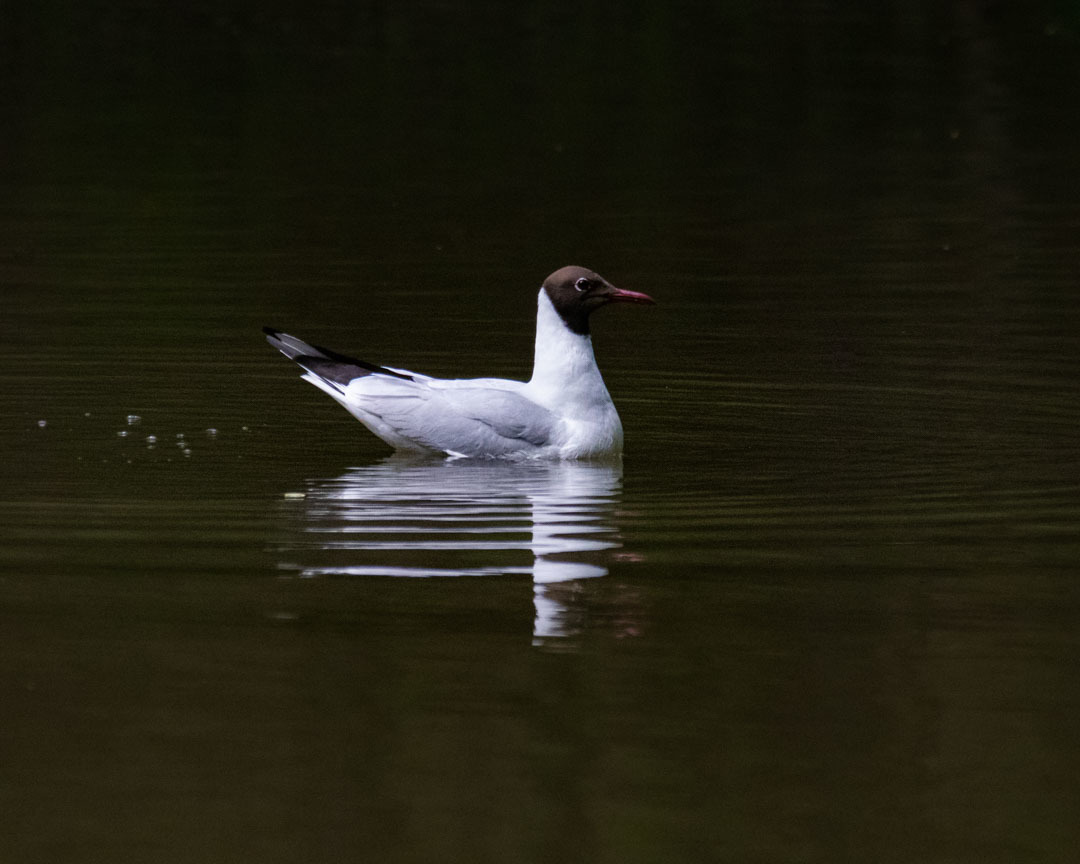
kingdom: Animalia
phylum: Chordata
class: Aves
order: Charadriiformes
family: Laridae
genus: Chroicocephalus
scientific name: Chroicocephalus ridibundus
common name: Black-headed gull
